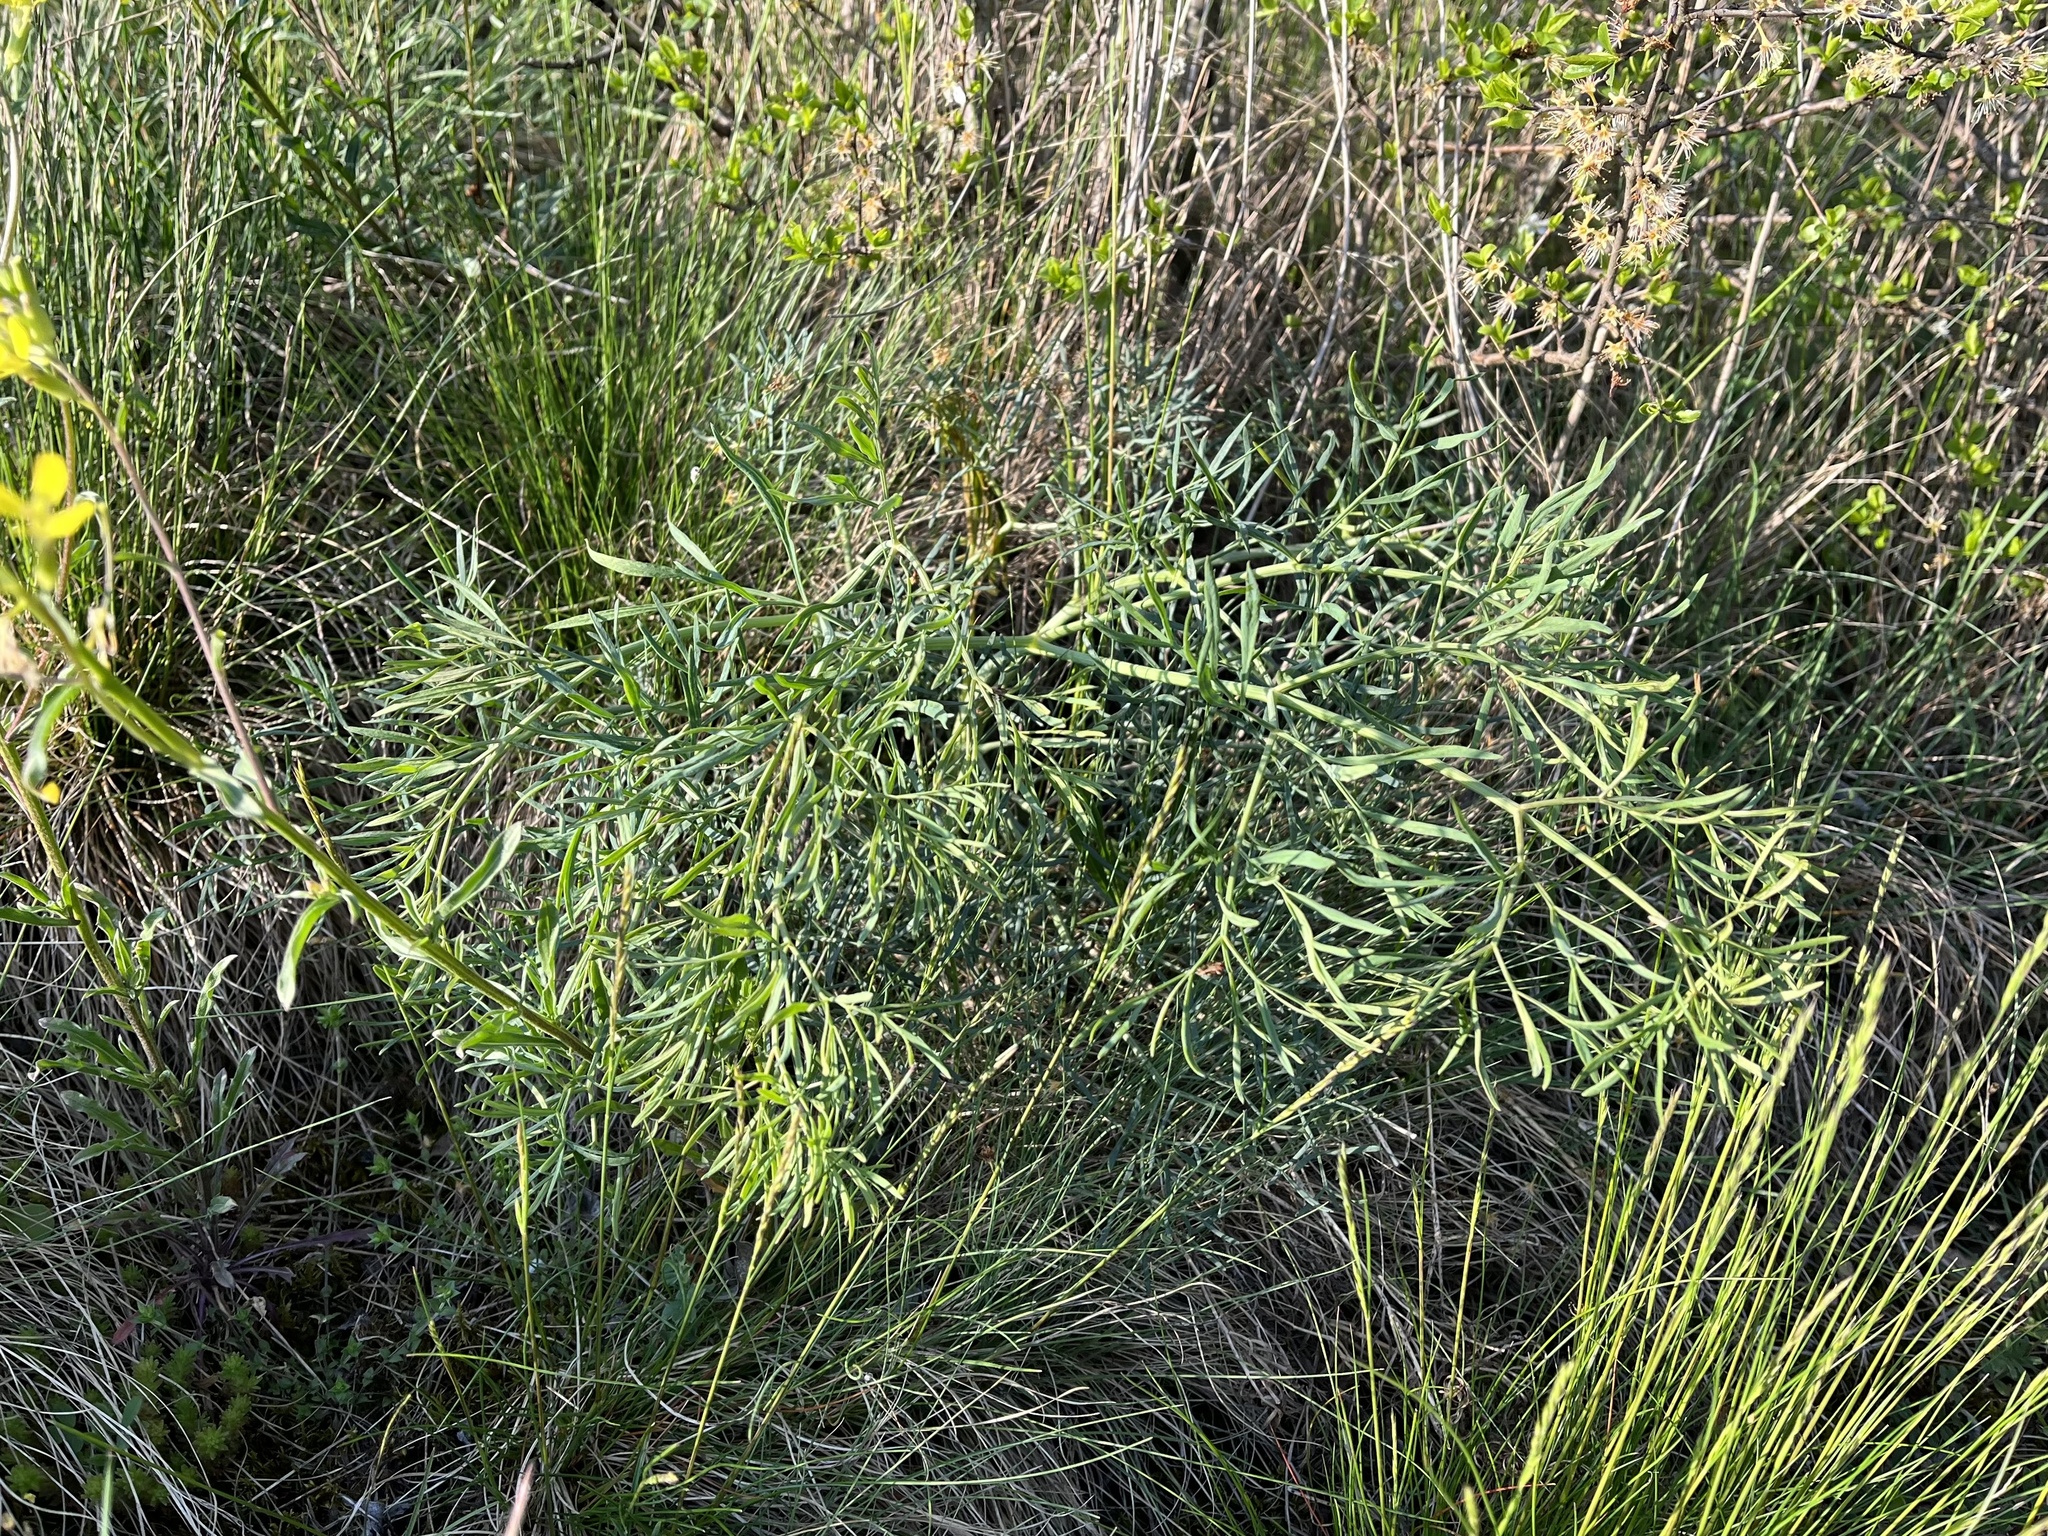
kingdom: Plantae
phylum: Tracheophyta
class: Magnoliopsida
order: Apiales
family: Apiaceae
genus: Seseli
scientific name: Seseli osseum
